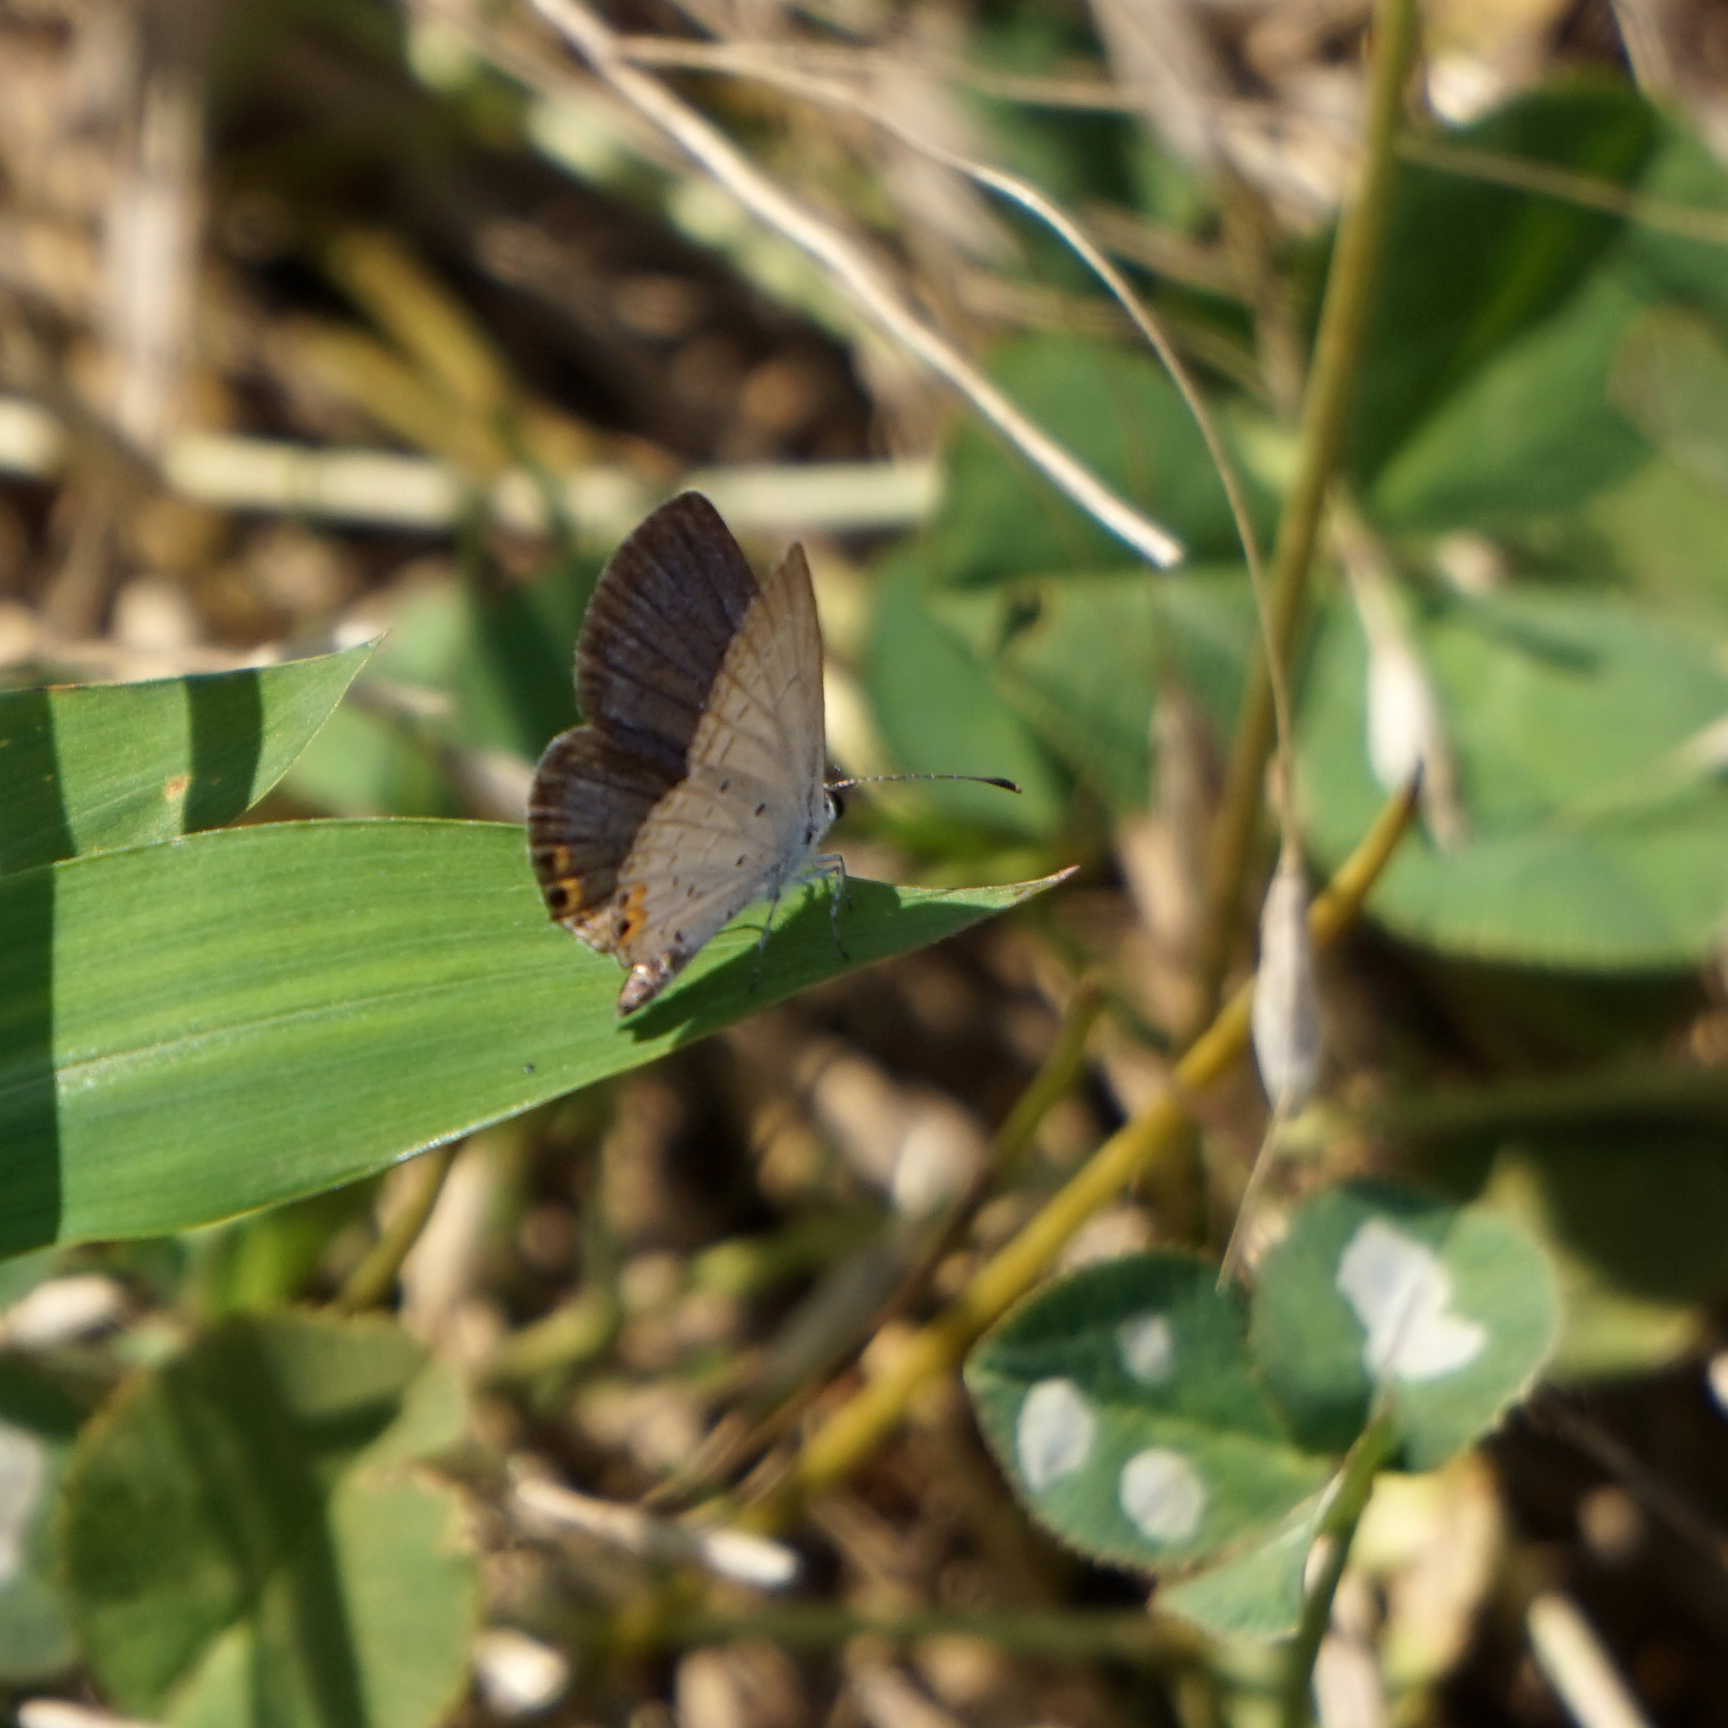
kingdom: Animalia
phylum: Arthropoda
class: Insecta
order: Lepidoptera
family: Lycaenidae
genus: Elkalyce
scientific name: Elkalyce comyntas
